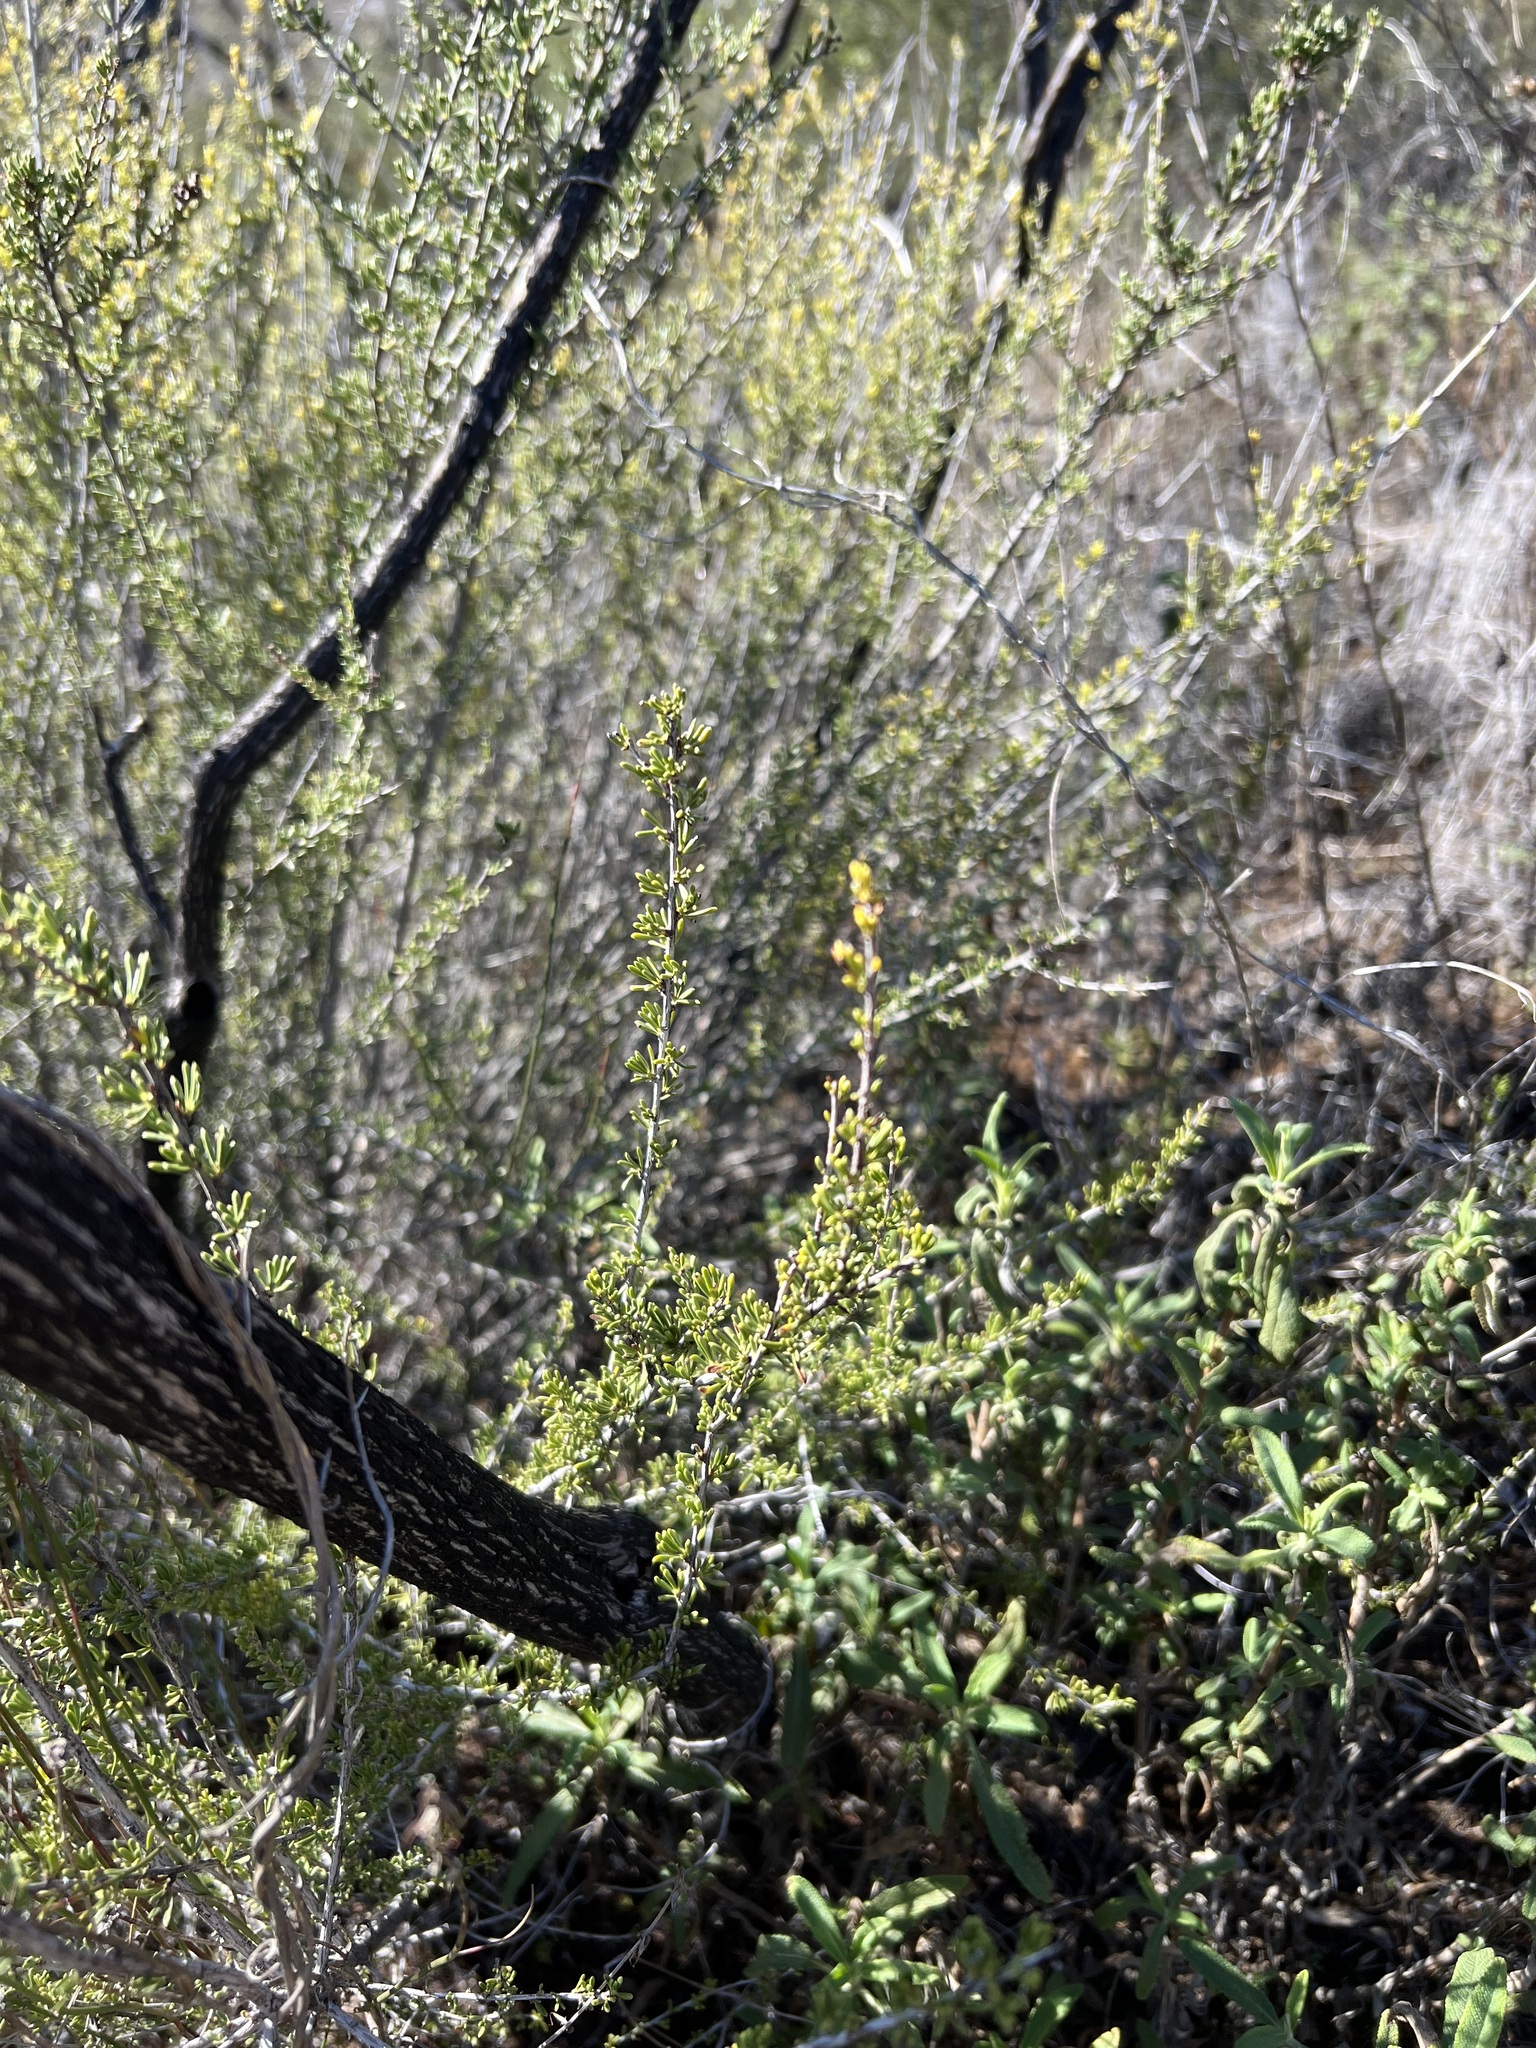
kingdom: Plantae
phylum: Tracheophyta
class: Magnoliopsida
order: Rosales
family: Rosaceae
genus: Adenostoma
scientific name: Adenostoma fasciculatum
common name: Chamise
